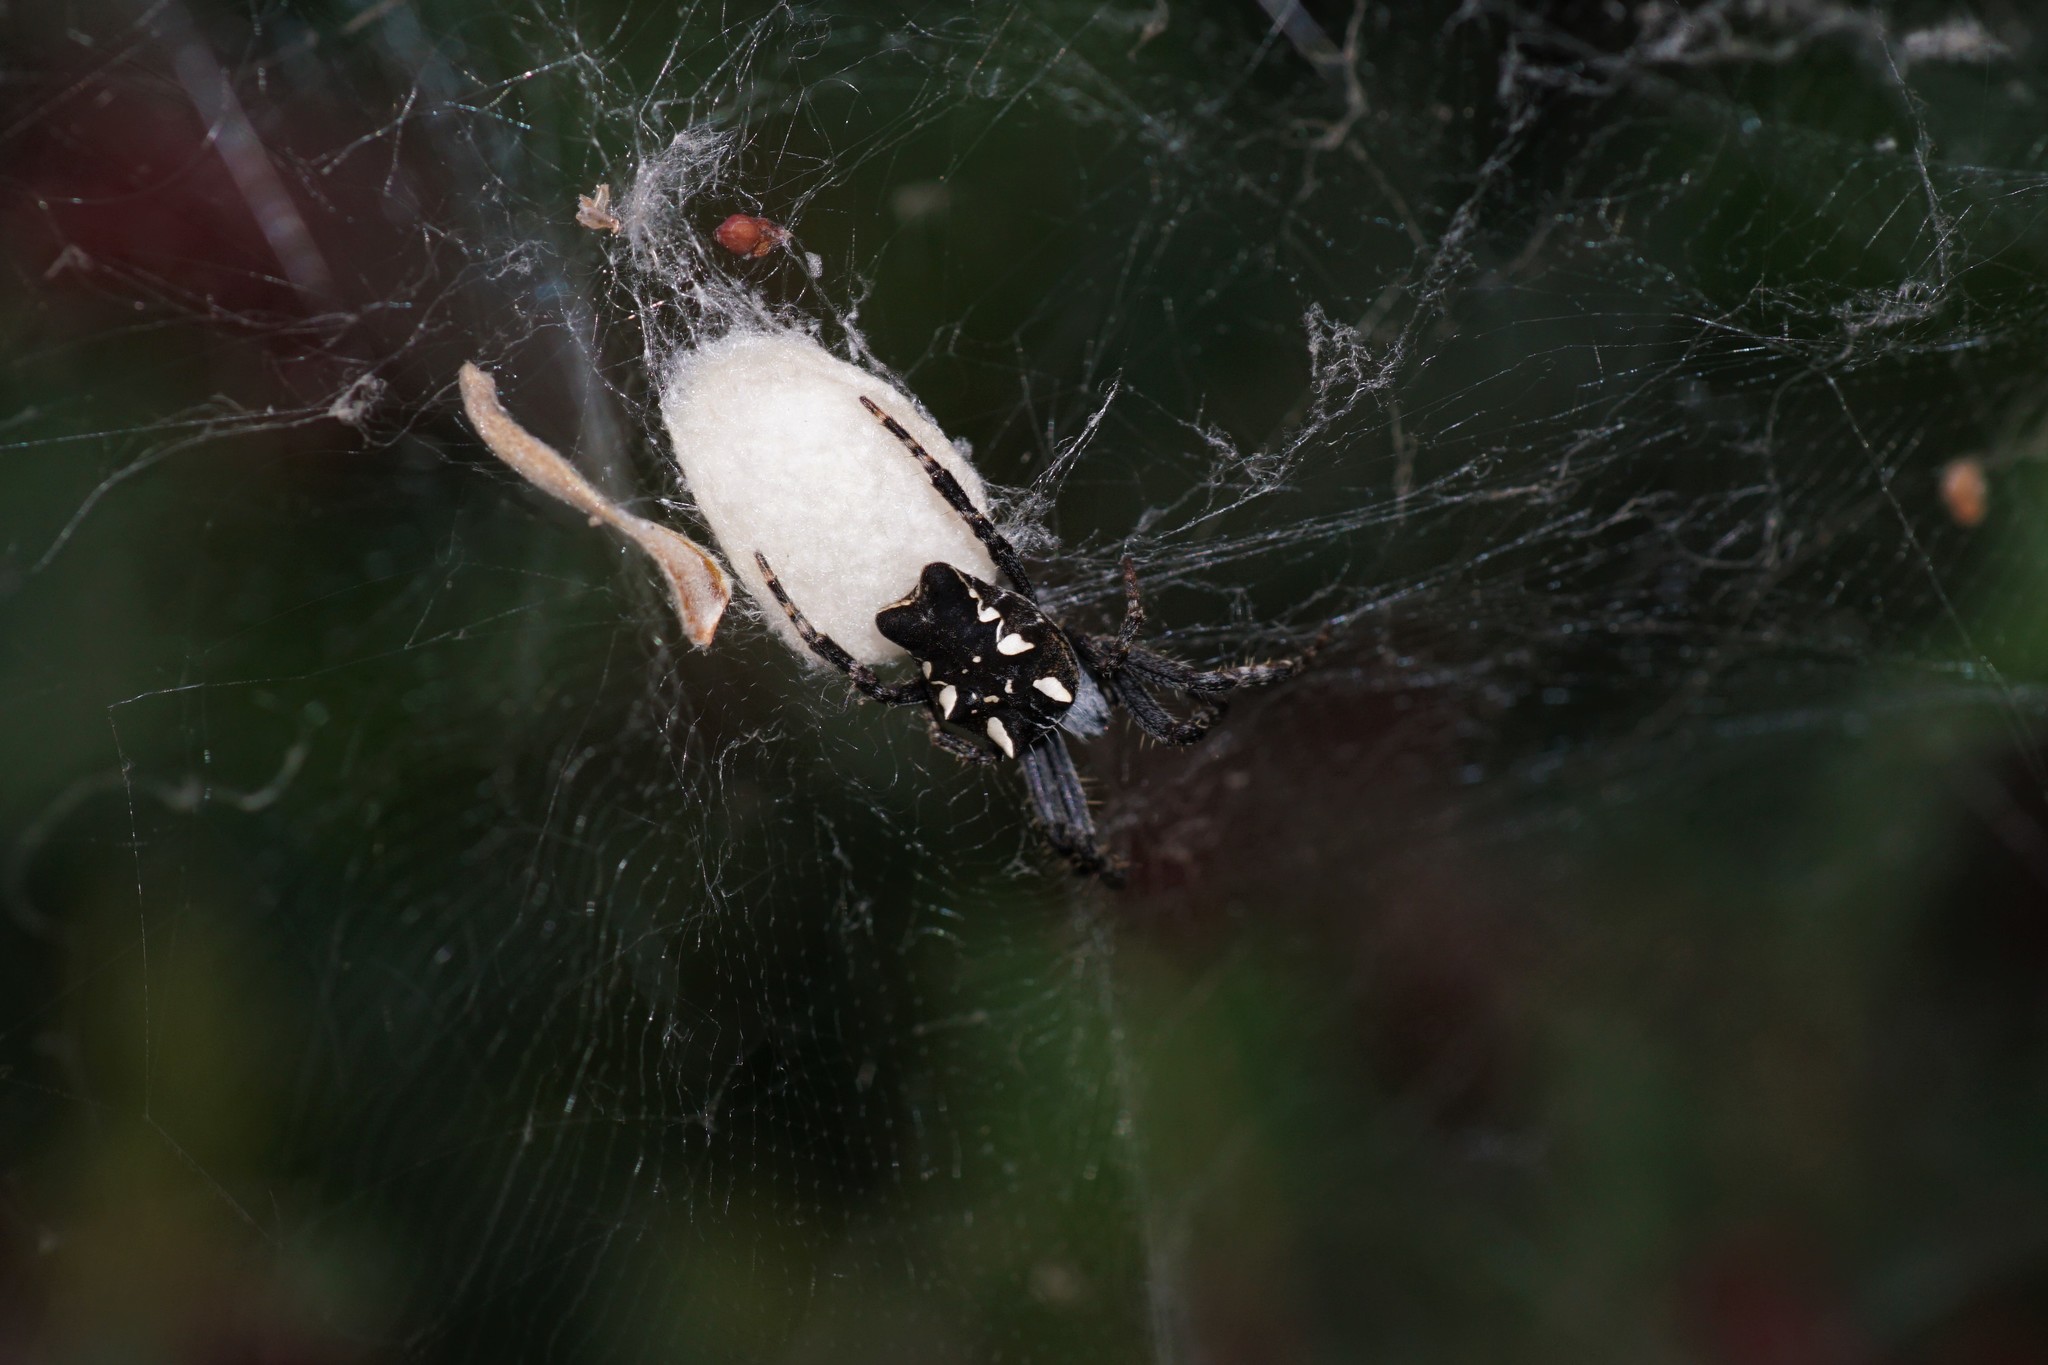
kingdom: Animalia
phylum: Arthropoda
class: Arachnida
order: Araneae
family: Araneidae
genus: Cyrtophora
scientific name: Cyrtophora citricola
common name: Orb weavers
